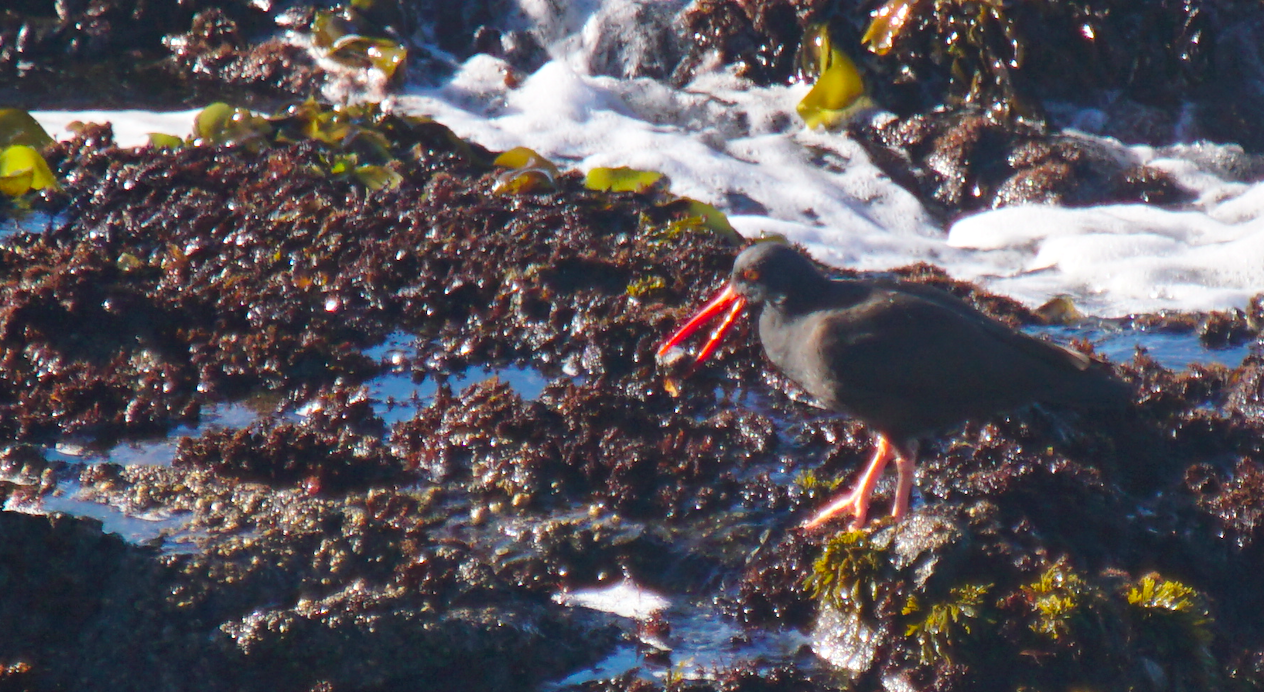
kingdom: Animalia
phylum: Chordata
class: Aves
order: Charadriiformes
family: Haematopodidae
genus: Haematopus
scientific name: Haematopus bachmani
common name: Black oystercatcher
